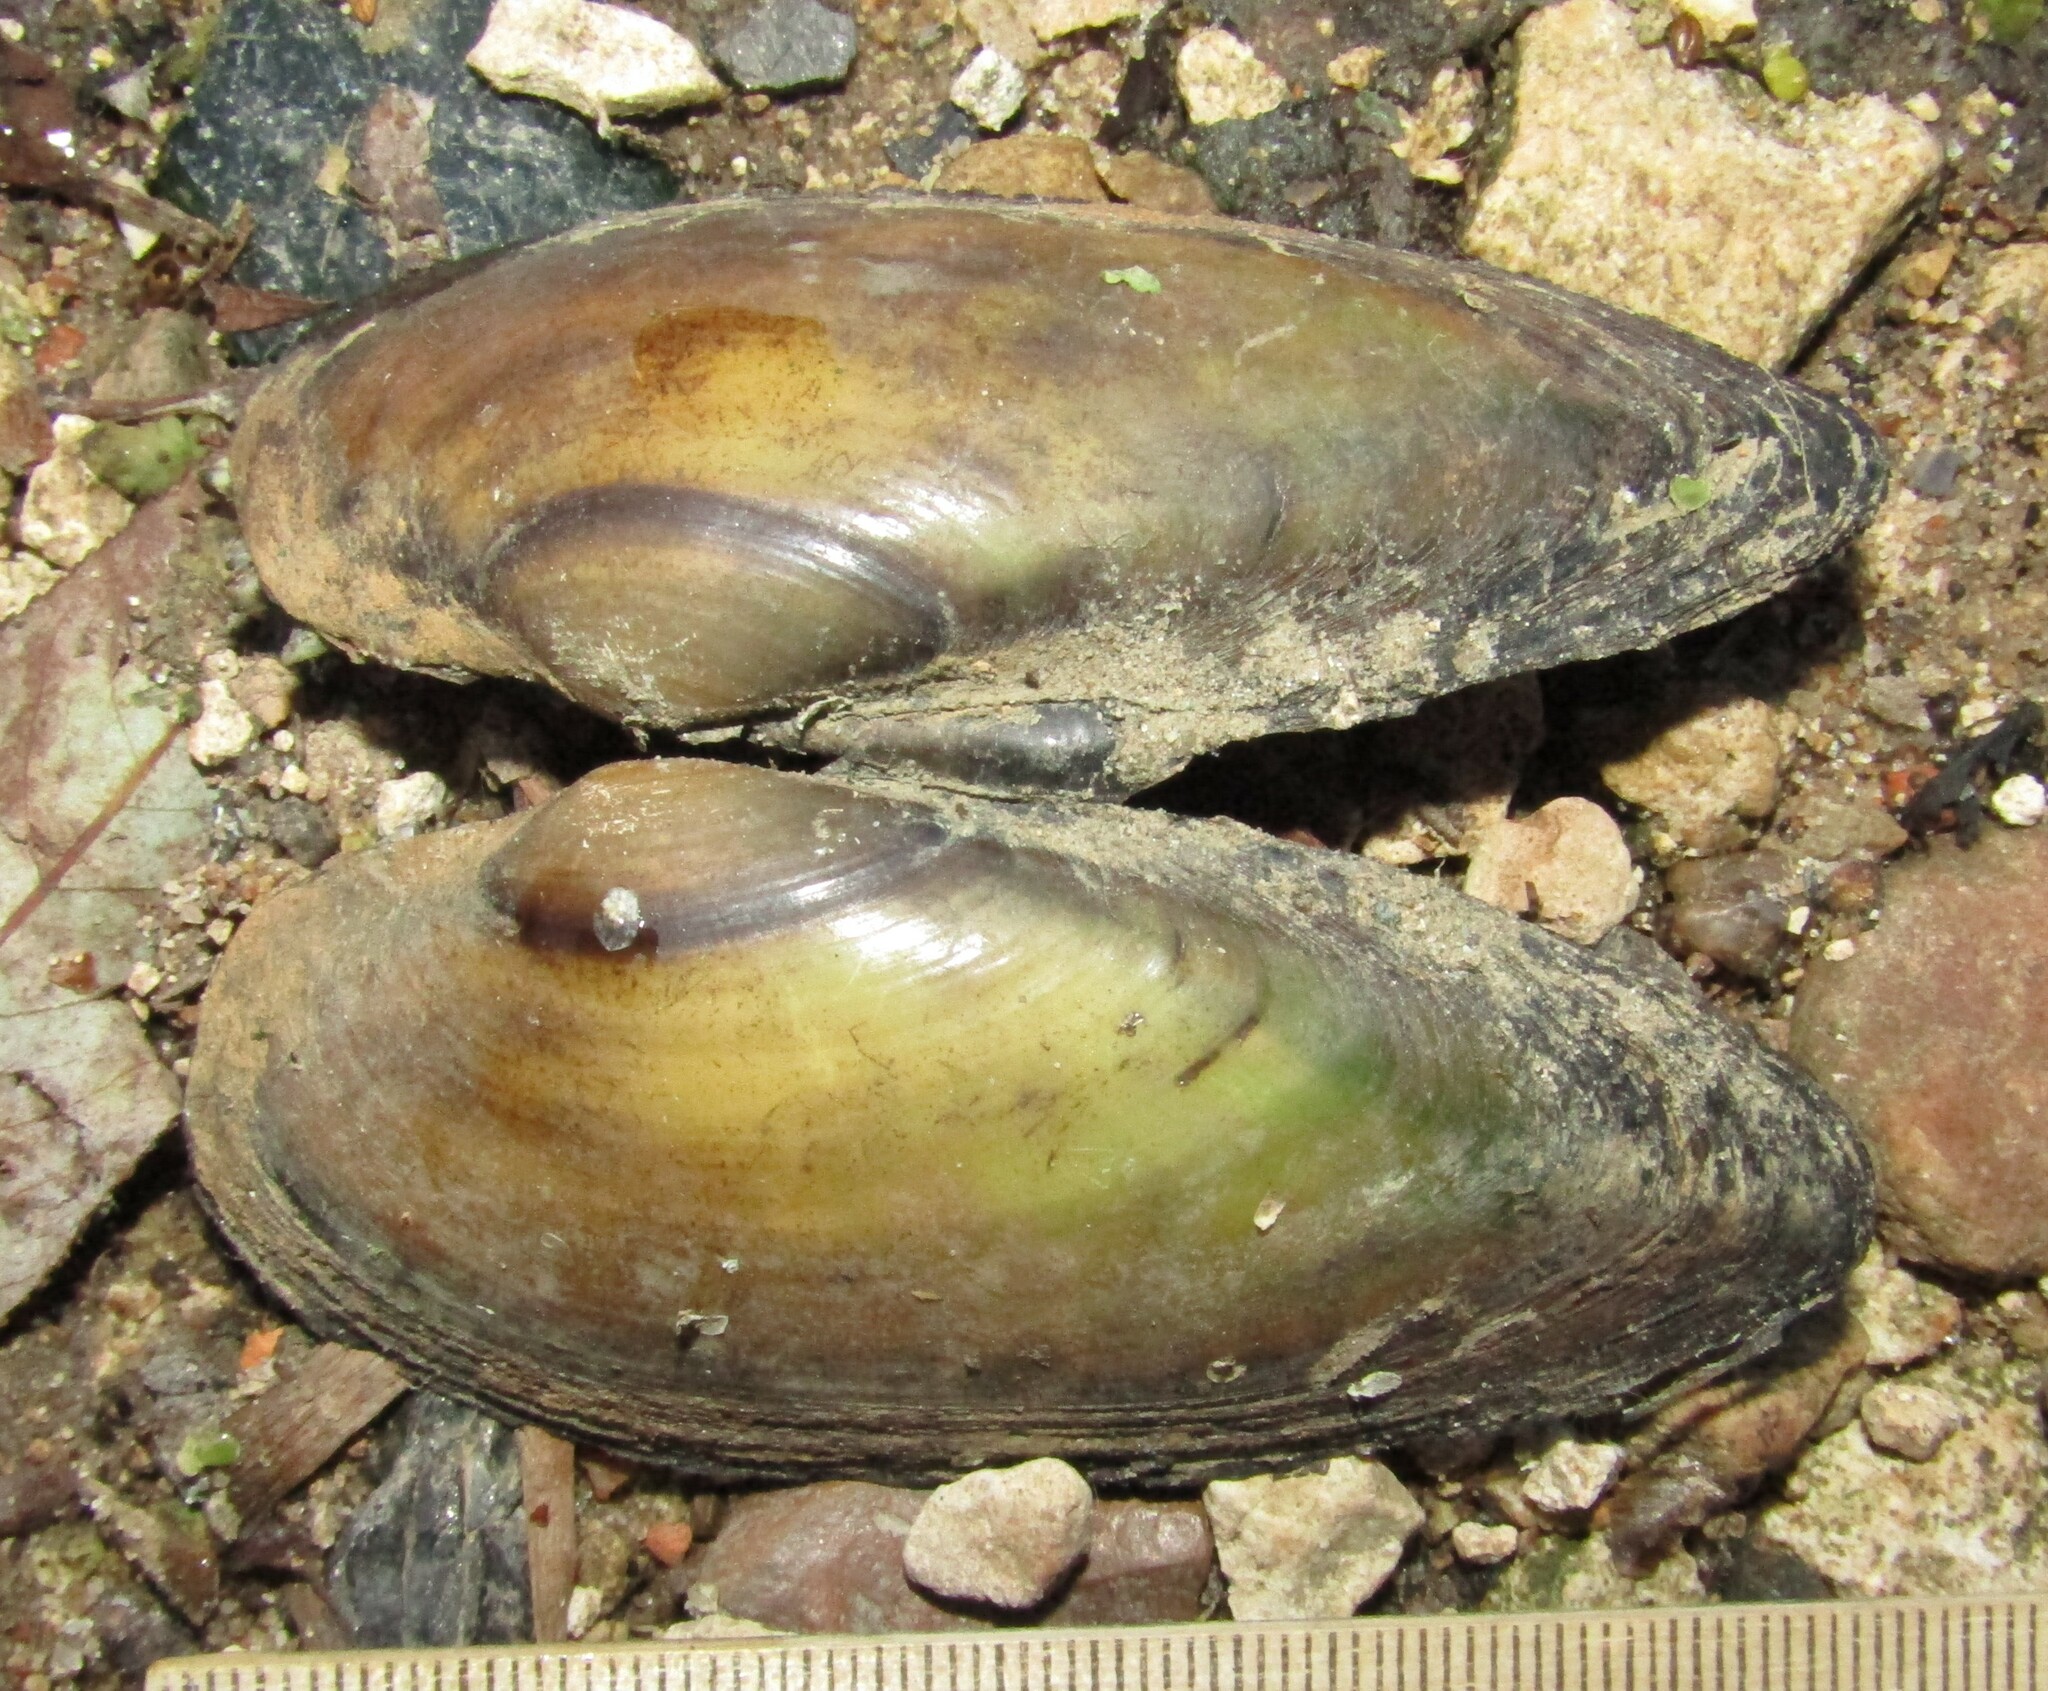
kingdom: Animalia
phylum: Mollusca
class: Bivalvia
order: Unionida
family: Unionidae
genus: Unio
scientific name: Unio pictorum
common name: Painter's mussel
